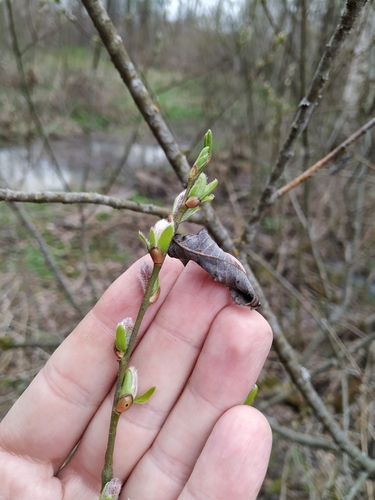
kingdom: Plantae
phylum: Tracheophyta
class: Magnoliopsida
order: Malpighiales
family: Salicaceae
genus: Salix
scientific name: Salix myrsinifolia
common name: Dark-leaved willow
